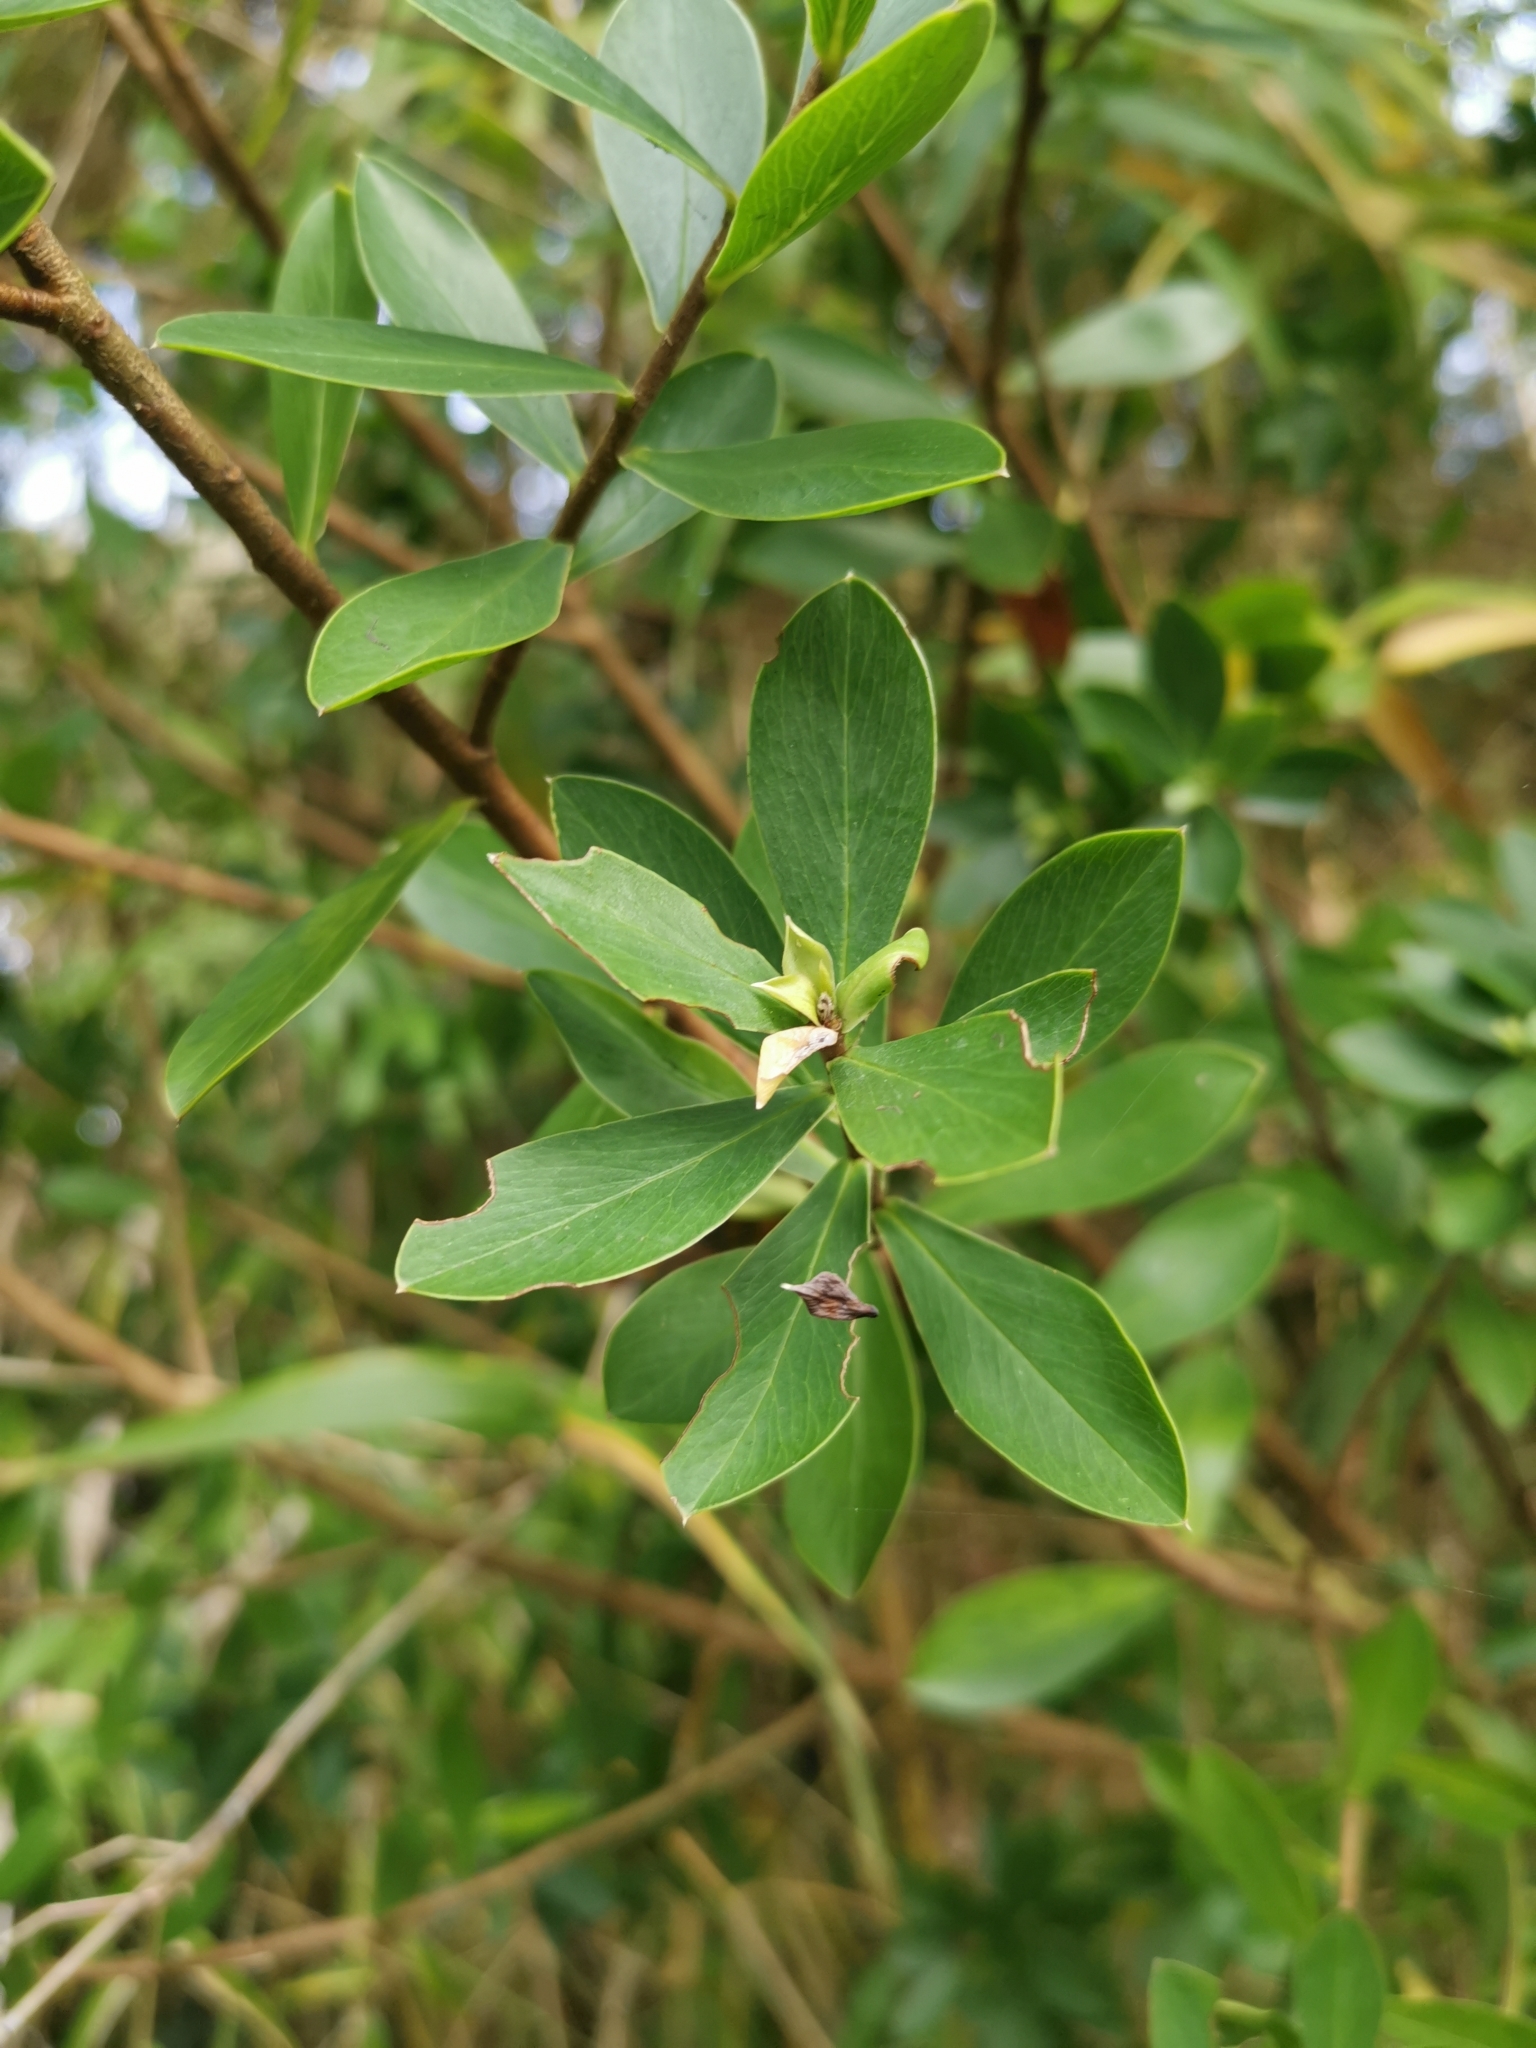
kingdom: Plantae
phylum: Tracheophyta
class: Magnoliopsida
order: Malvales
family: Thymelaeaceae
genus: Ovidia
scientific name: Ovidia andina
